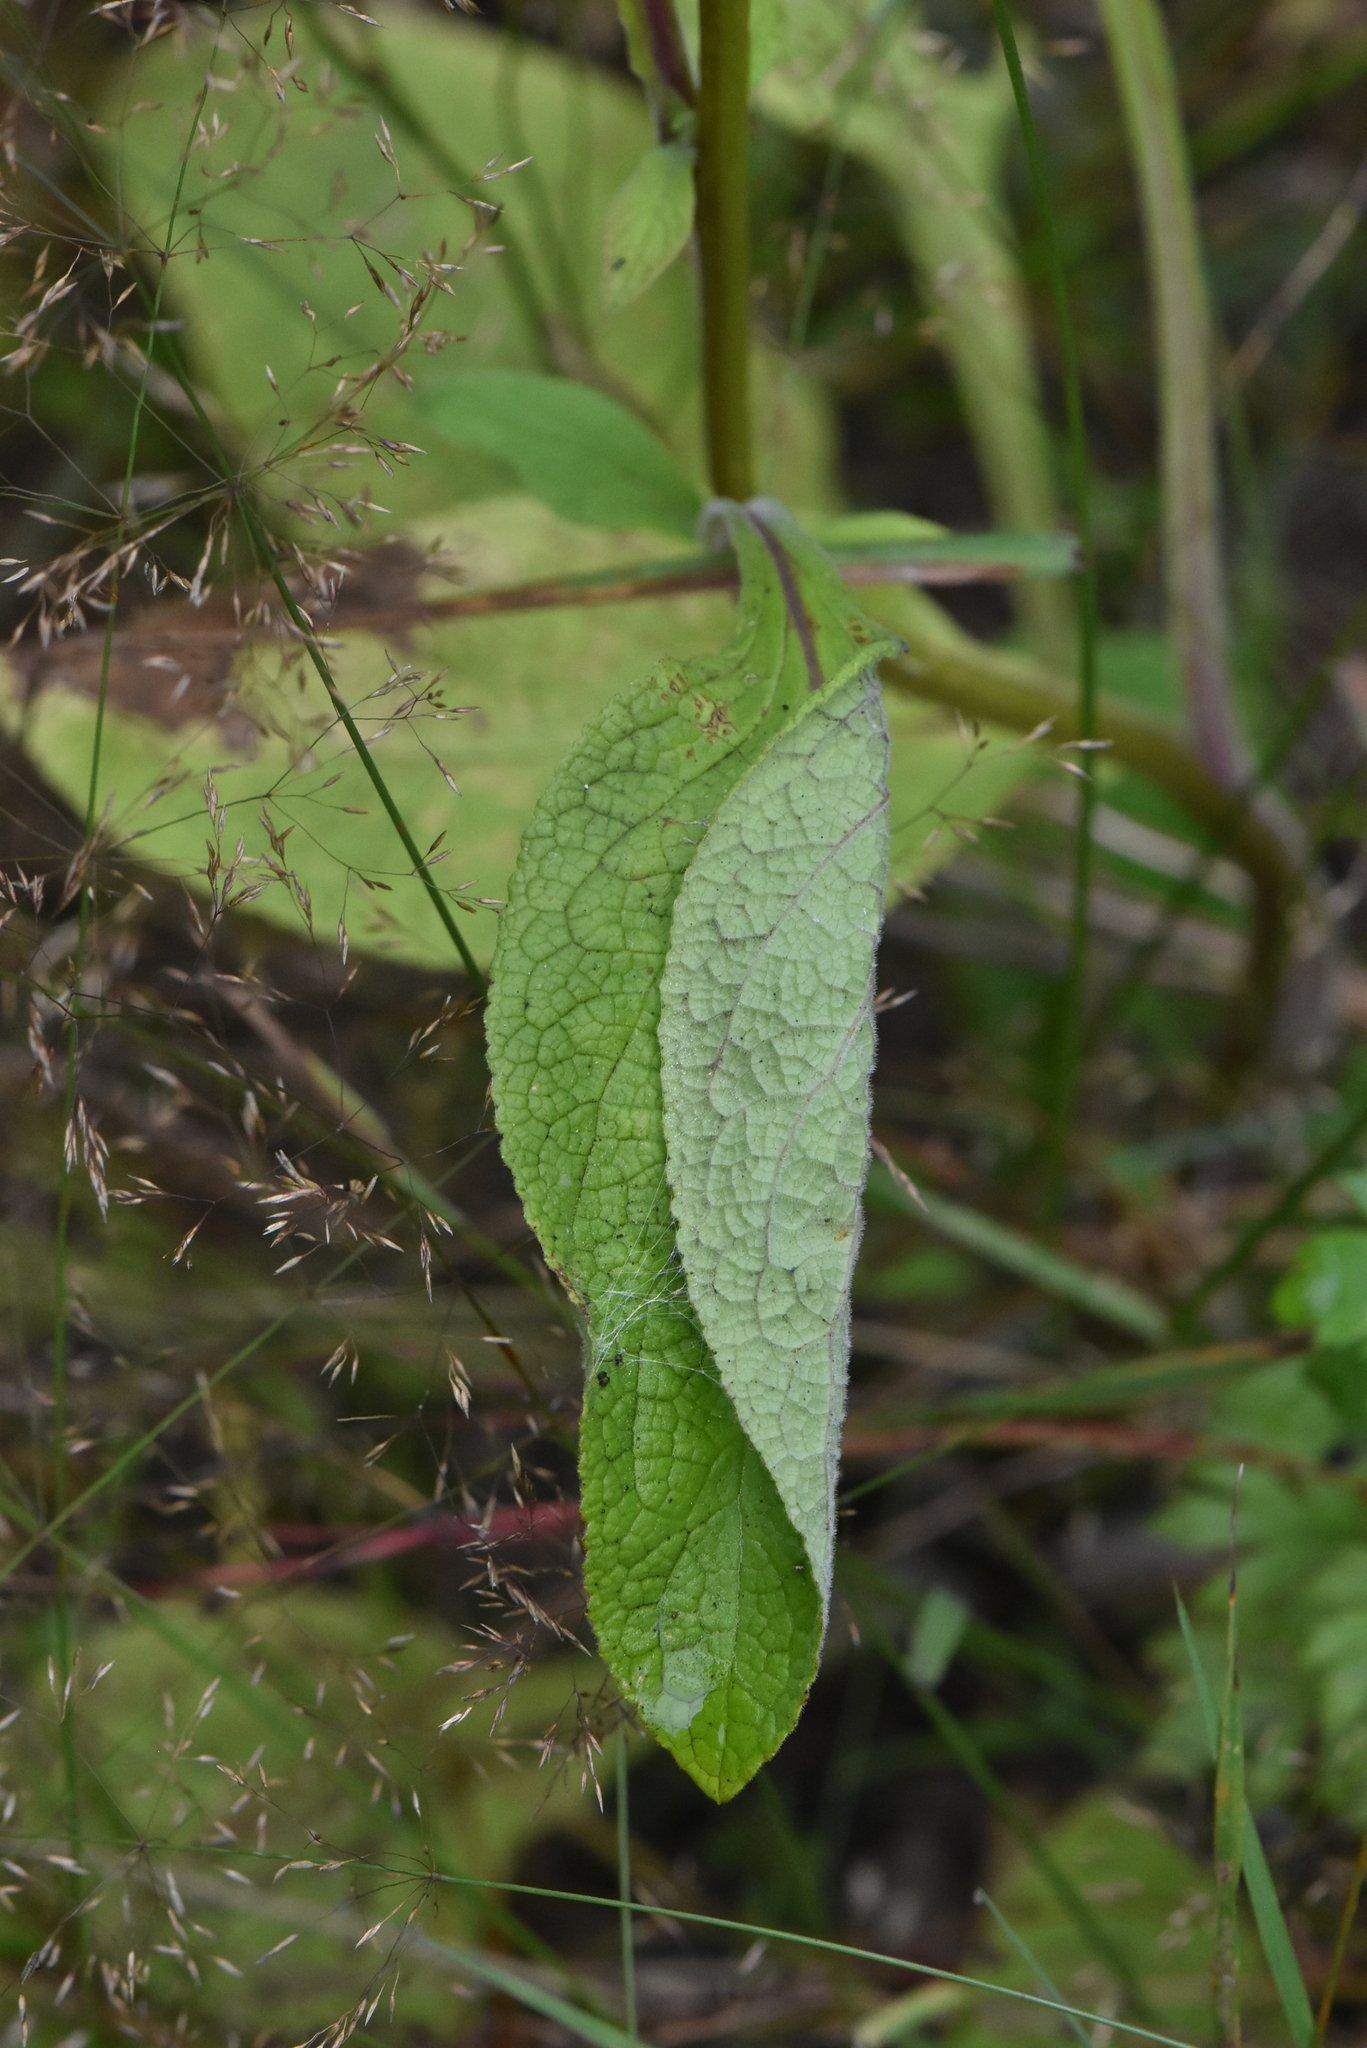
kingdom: Plantae
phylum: Tracheophyta
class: Magnoliopsida
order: Lamiales
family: Plantaginaceae
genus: Digitalis
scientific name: Digitalis purpurea
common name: Foxglove
